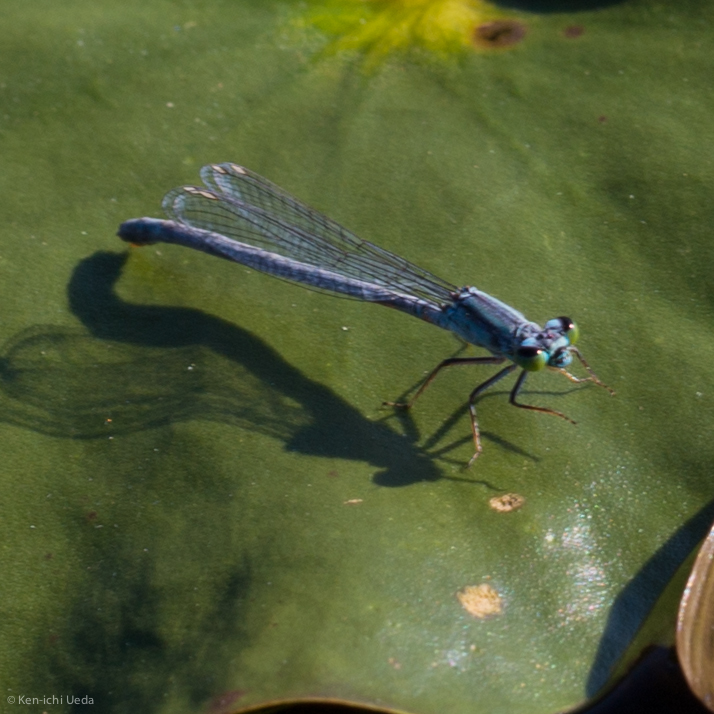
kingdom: Animalia
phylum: Arthropoda
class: Insecta
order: Odonata
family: Coenagrionidae
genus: Ischnura
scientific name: Ischnura verticalis
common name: Eastern forktail
